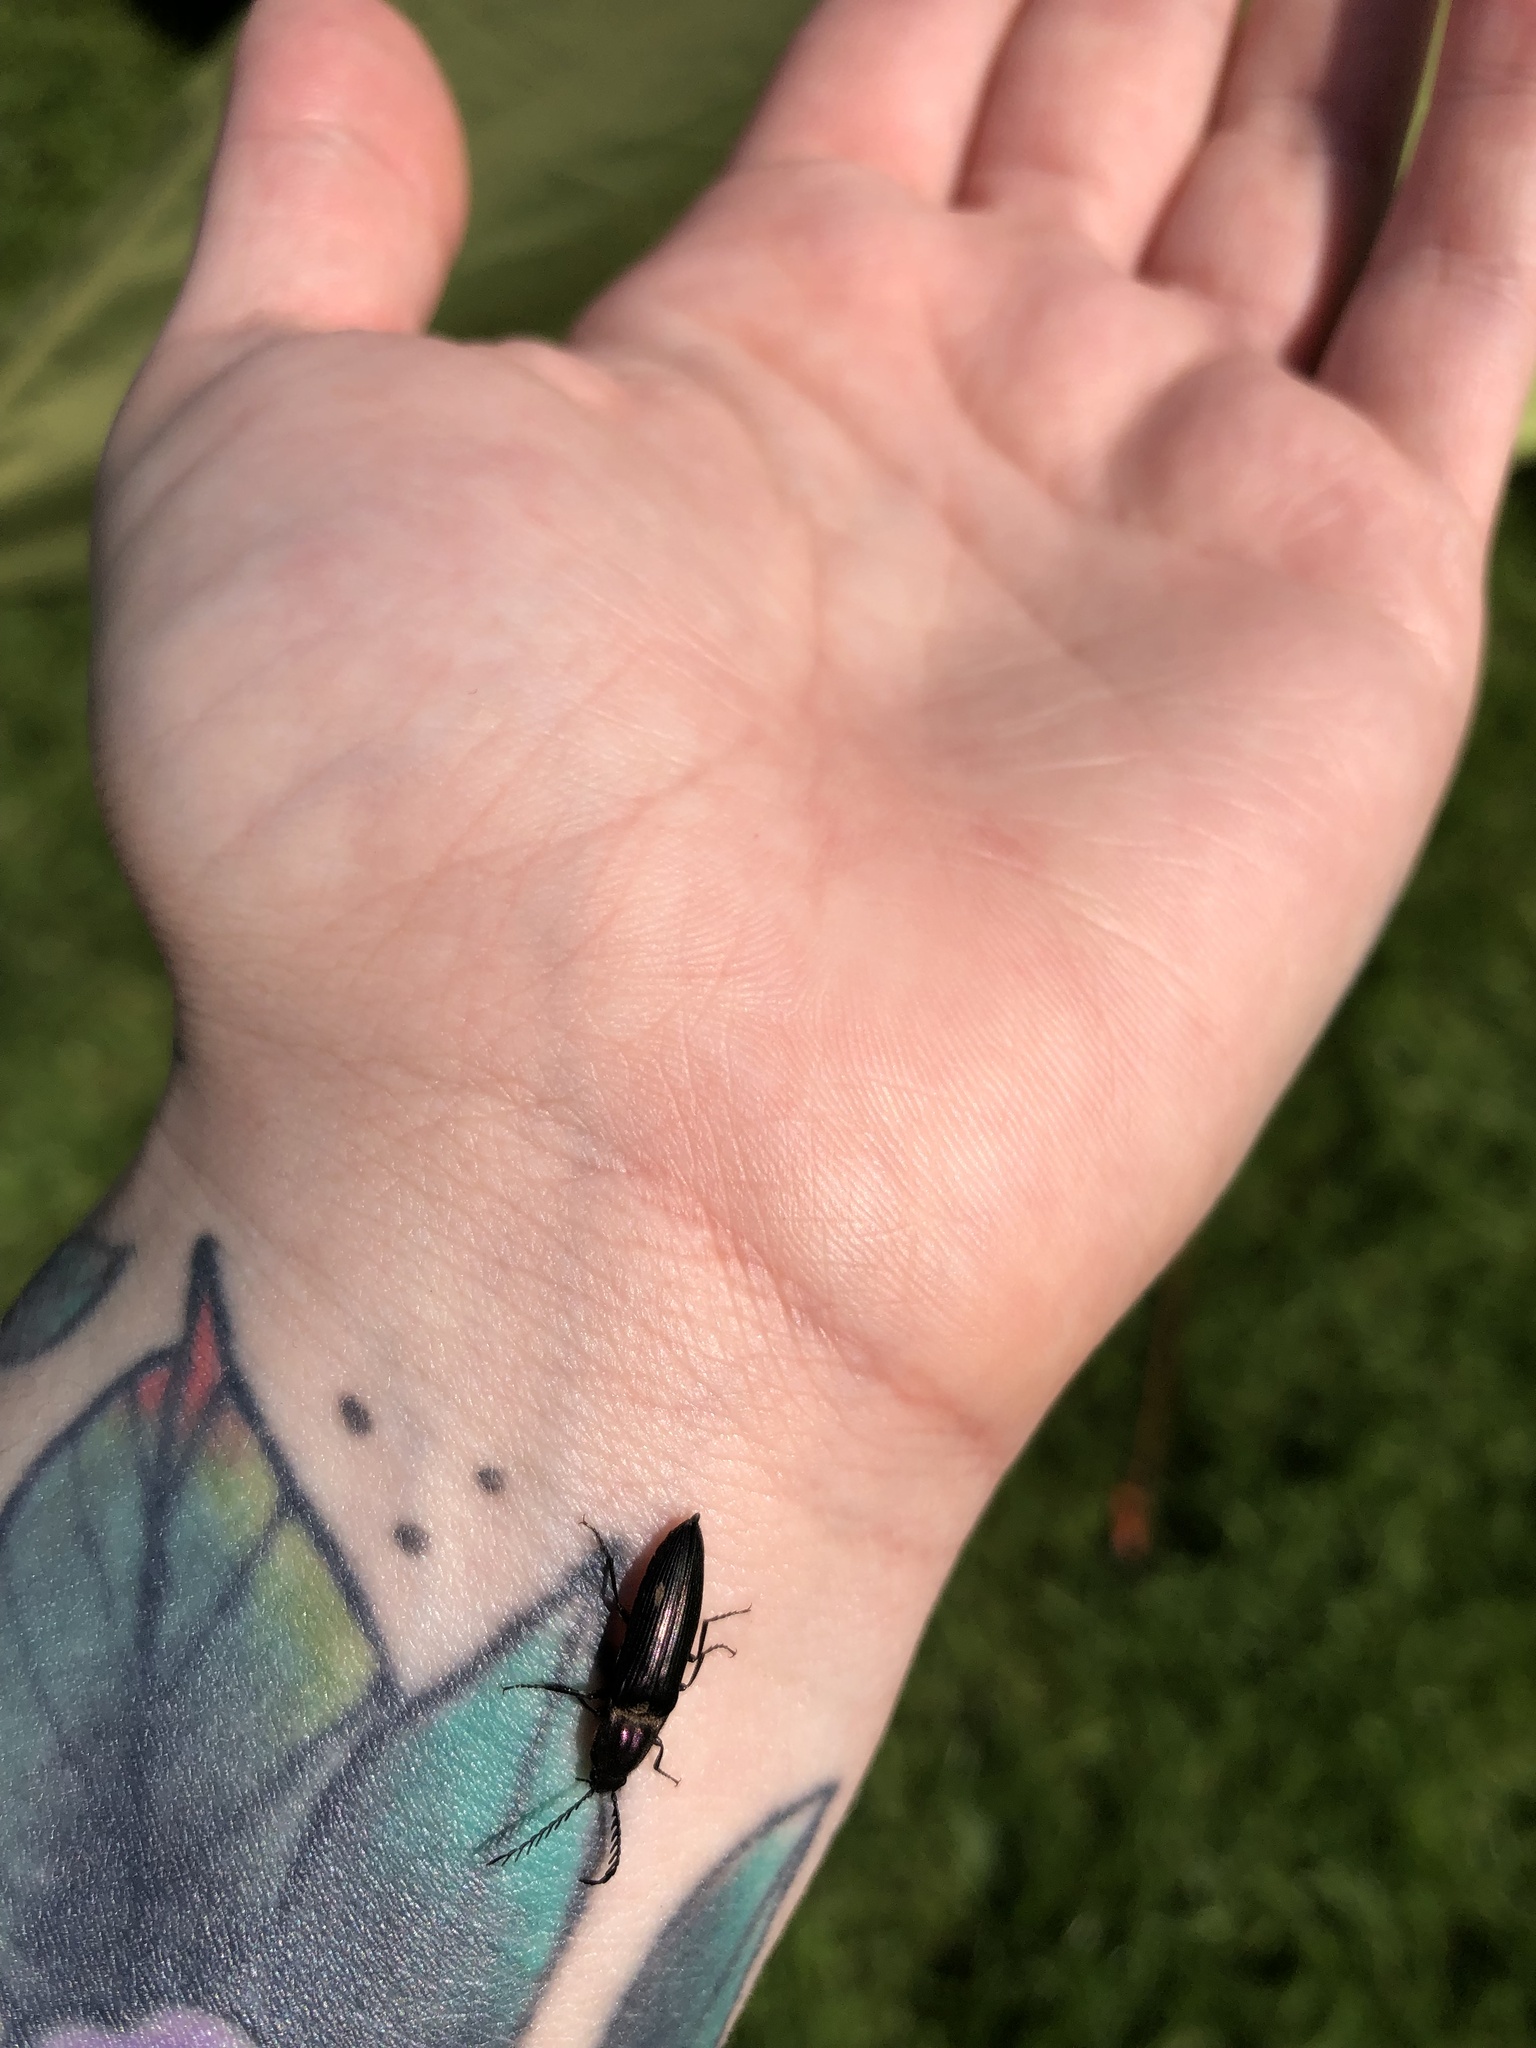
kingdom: Animalia
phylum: Arthropoda
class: Insecta
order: Coleoptera
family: Elateridae
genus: Ctenicera
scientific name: Ctenicera cuprea
